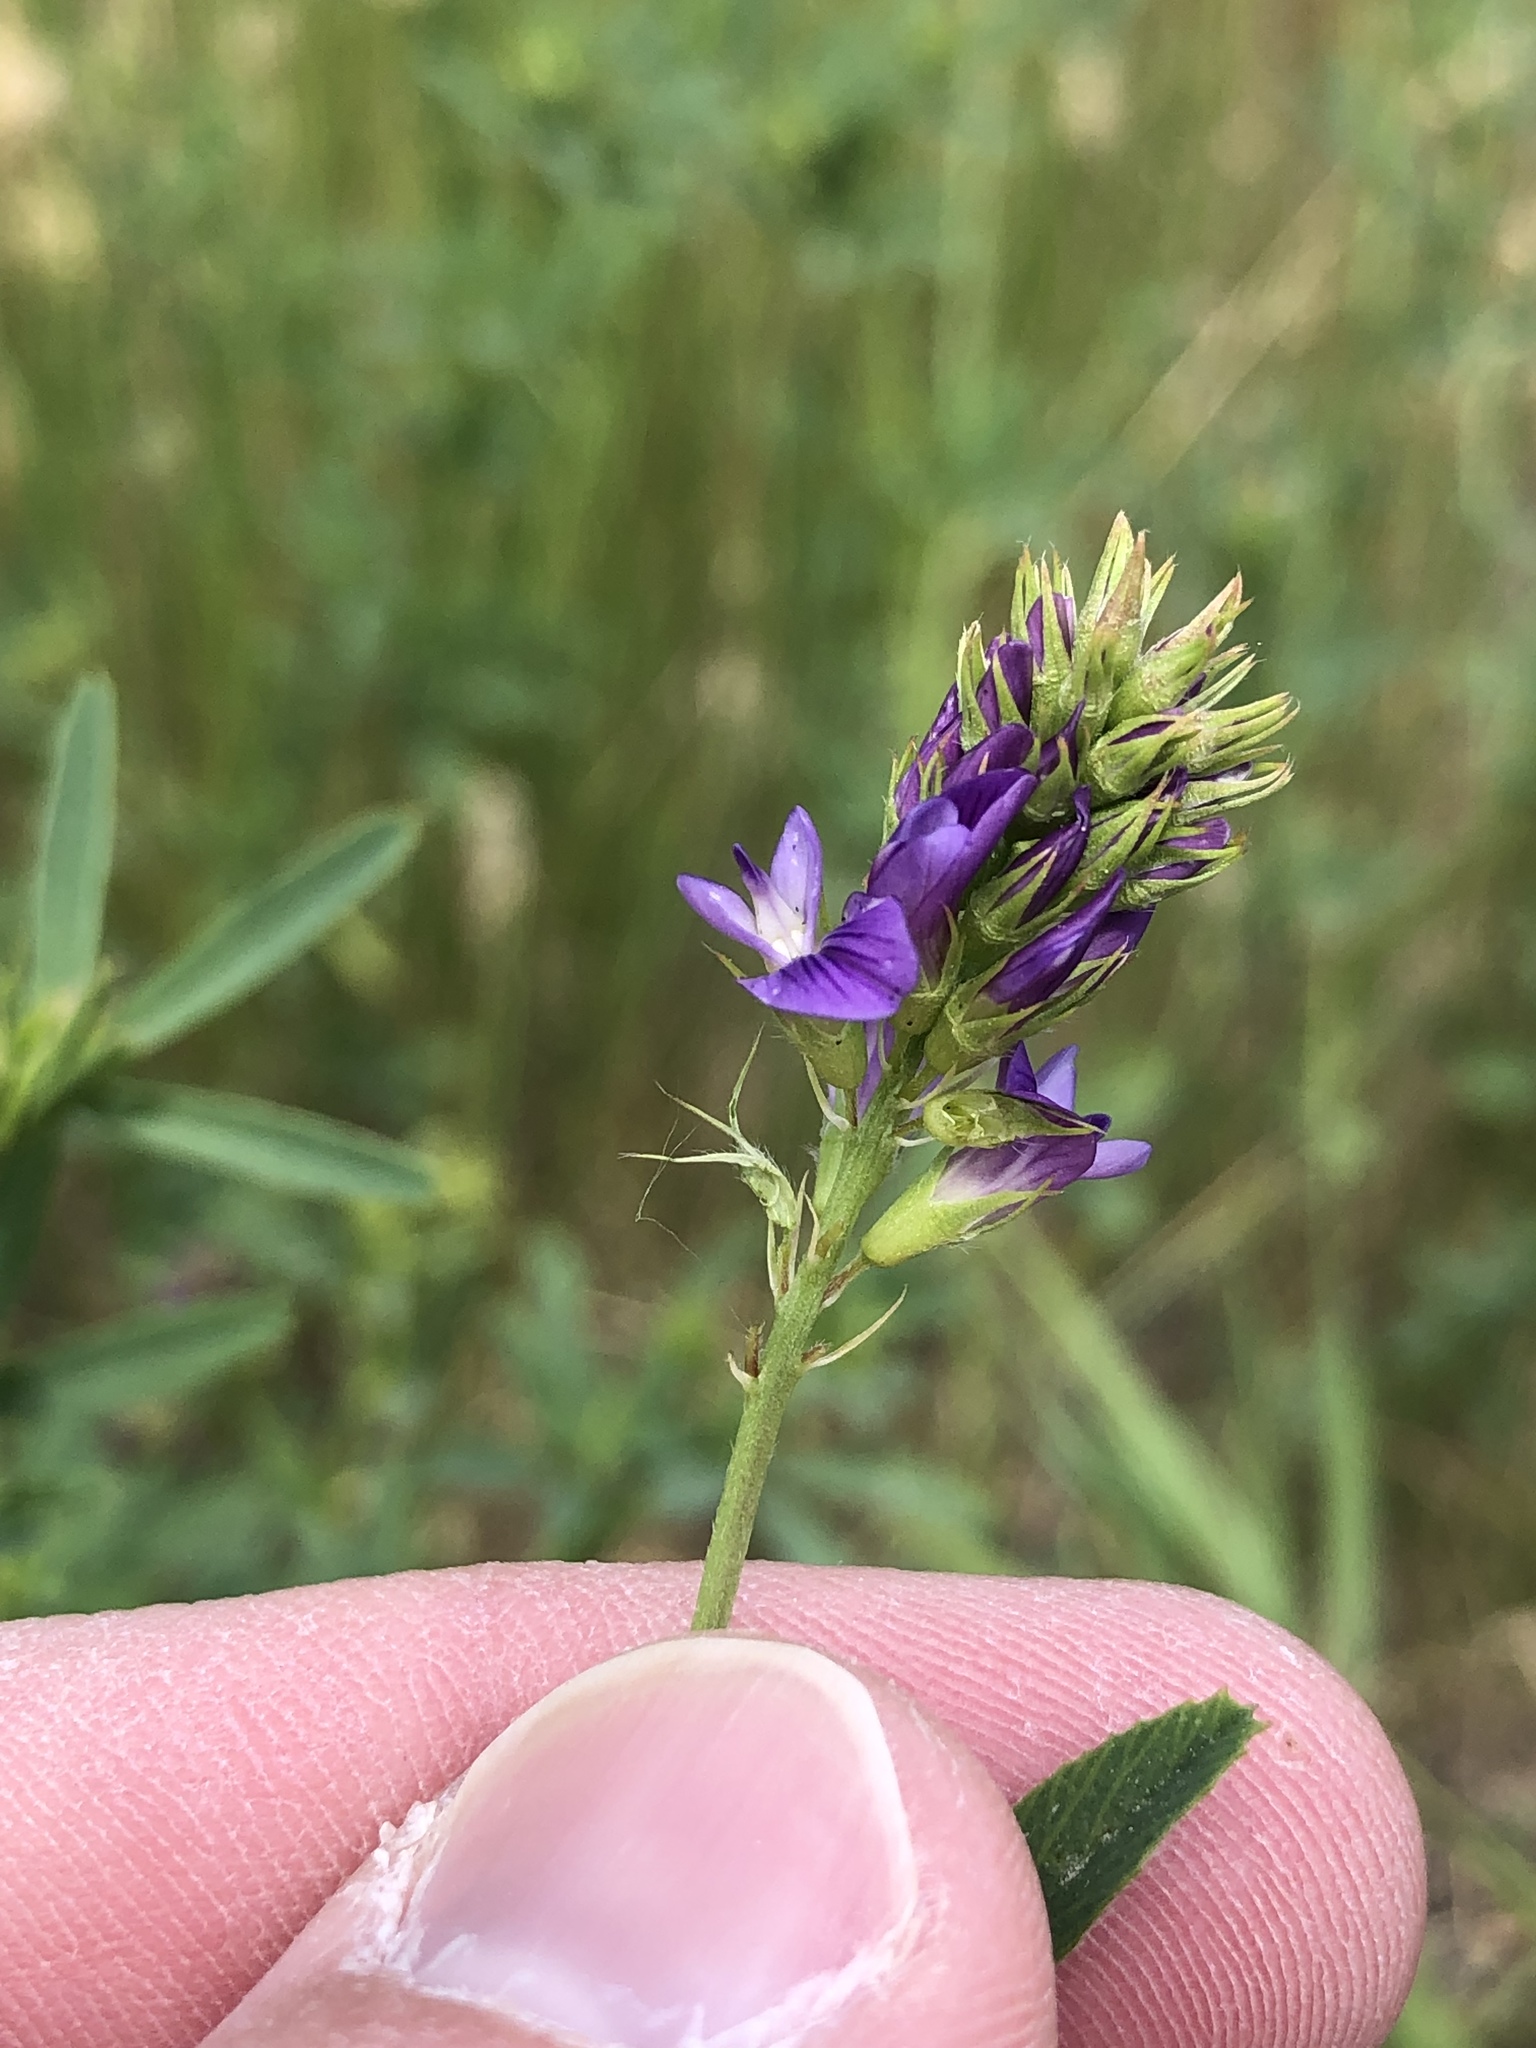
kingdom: Plantae
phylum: Tracheophyta
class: Magnoliopsida
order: Fabales
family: Fabaceae
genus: Medicago
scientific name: Medicago sativa
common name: Alfalfa
